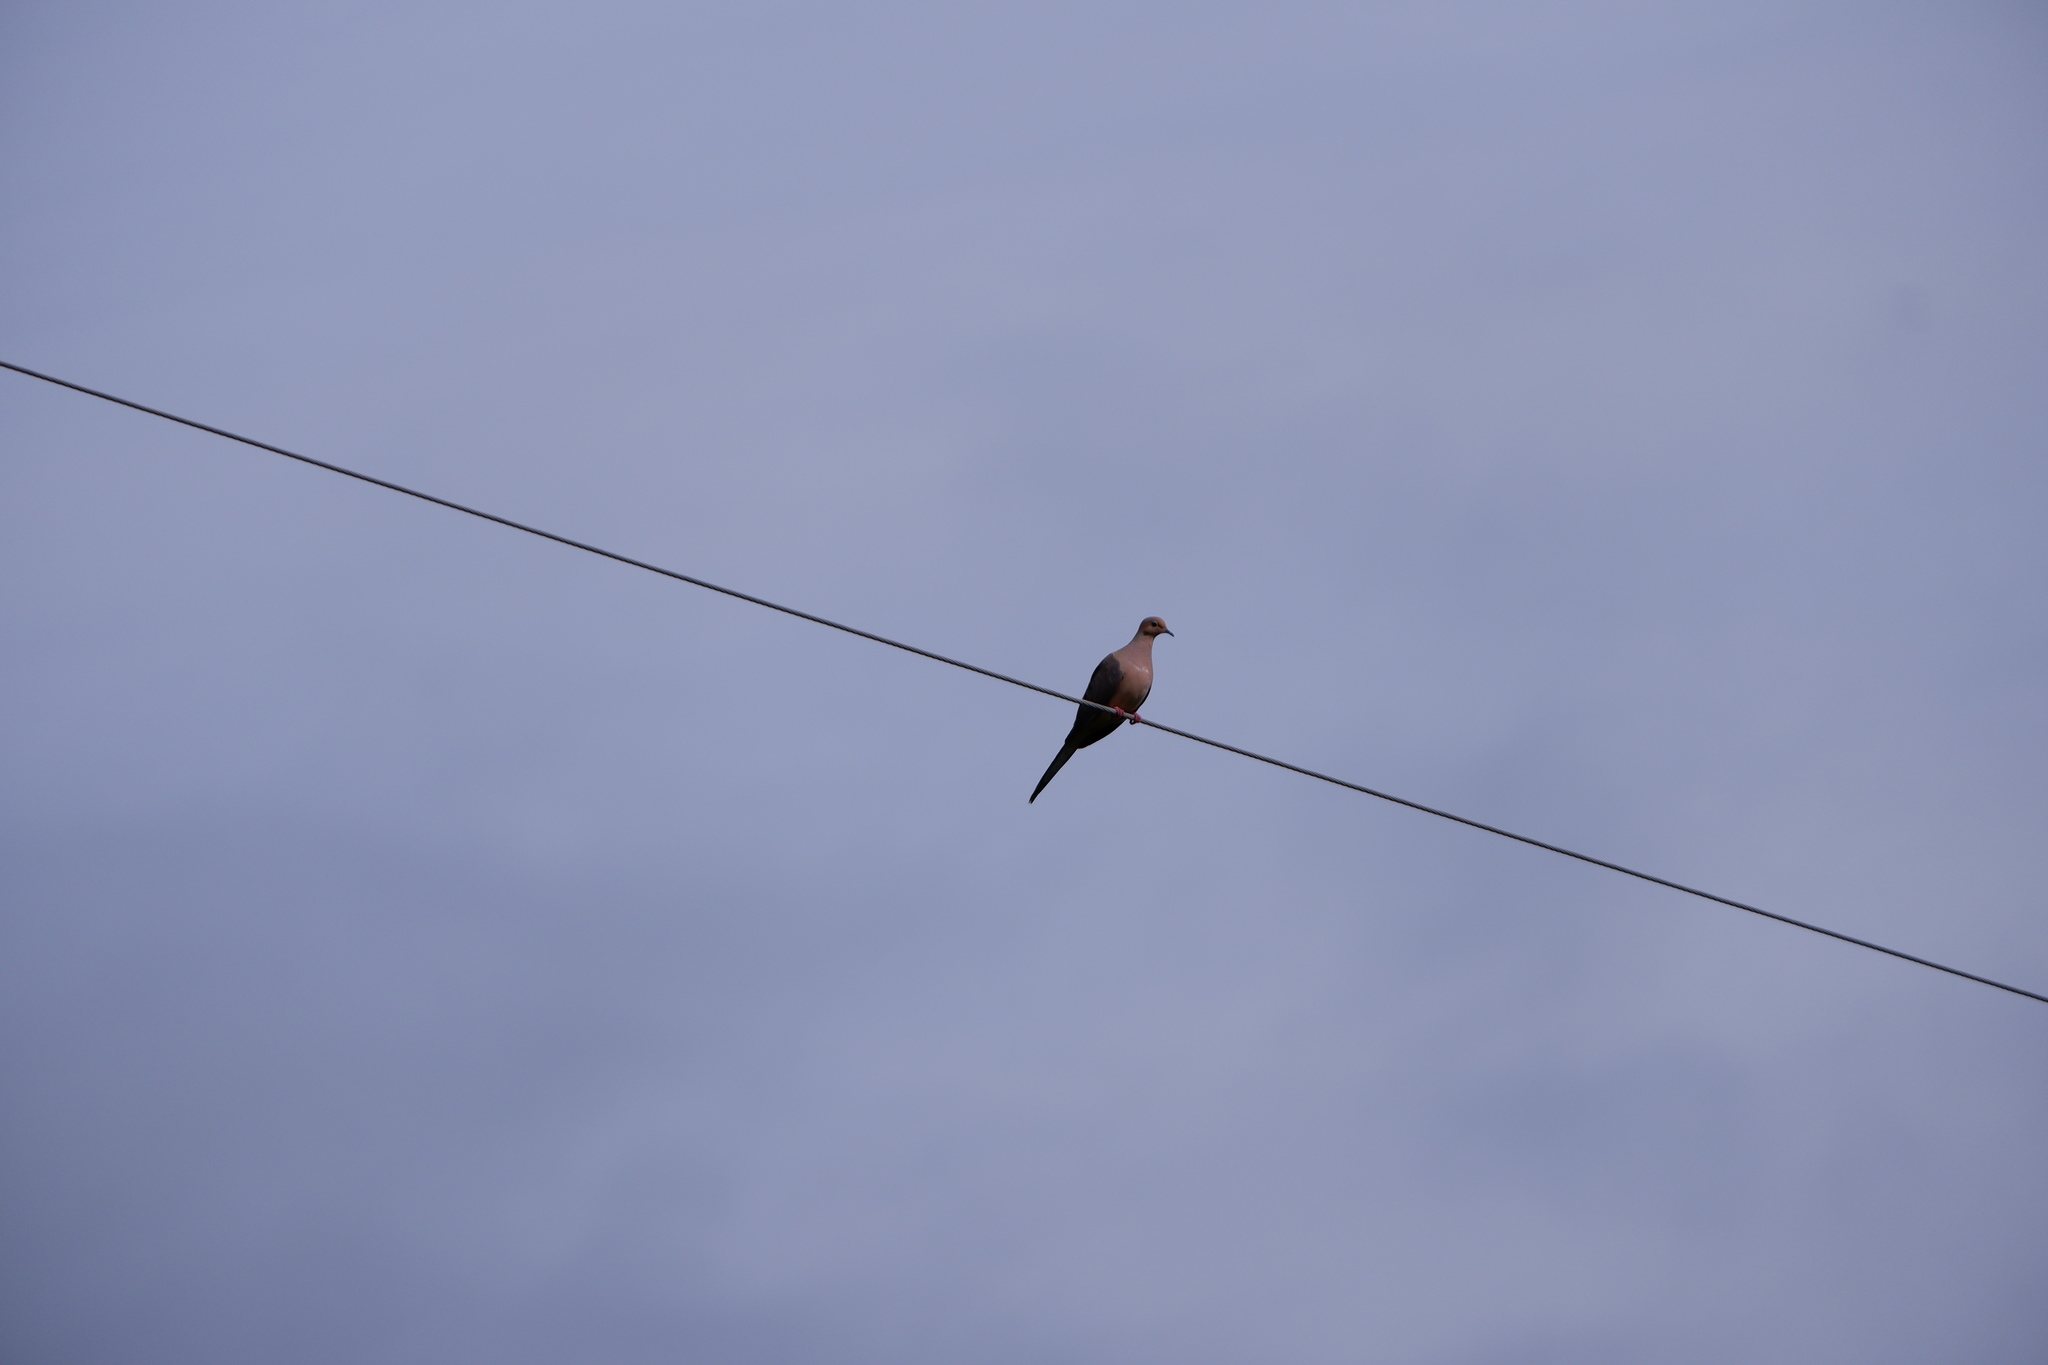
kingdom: Animalia
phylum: Chordata
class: Aves
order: Columbiformes
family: Columbidae
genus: Zenaida
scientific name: Zenaida macroura
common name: Mourning dove
